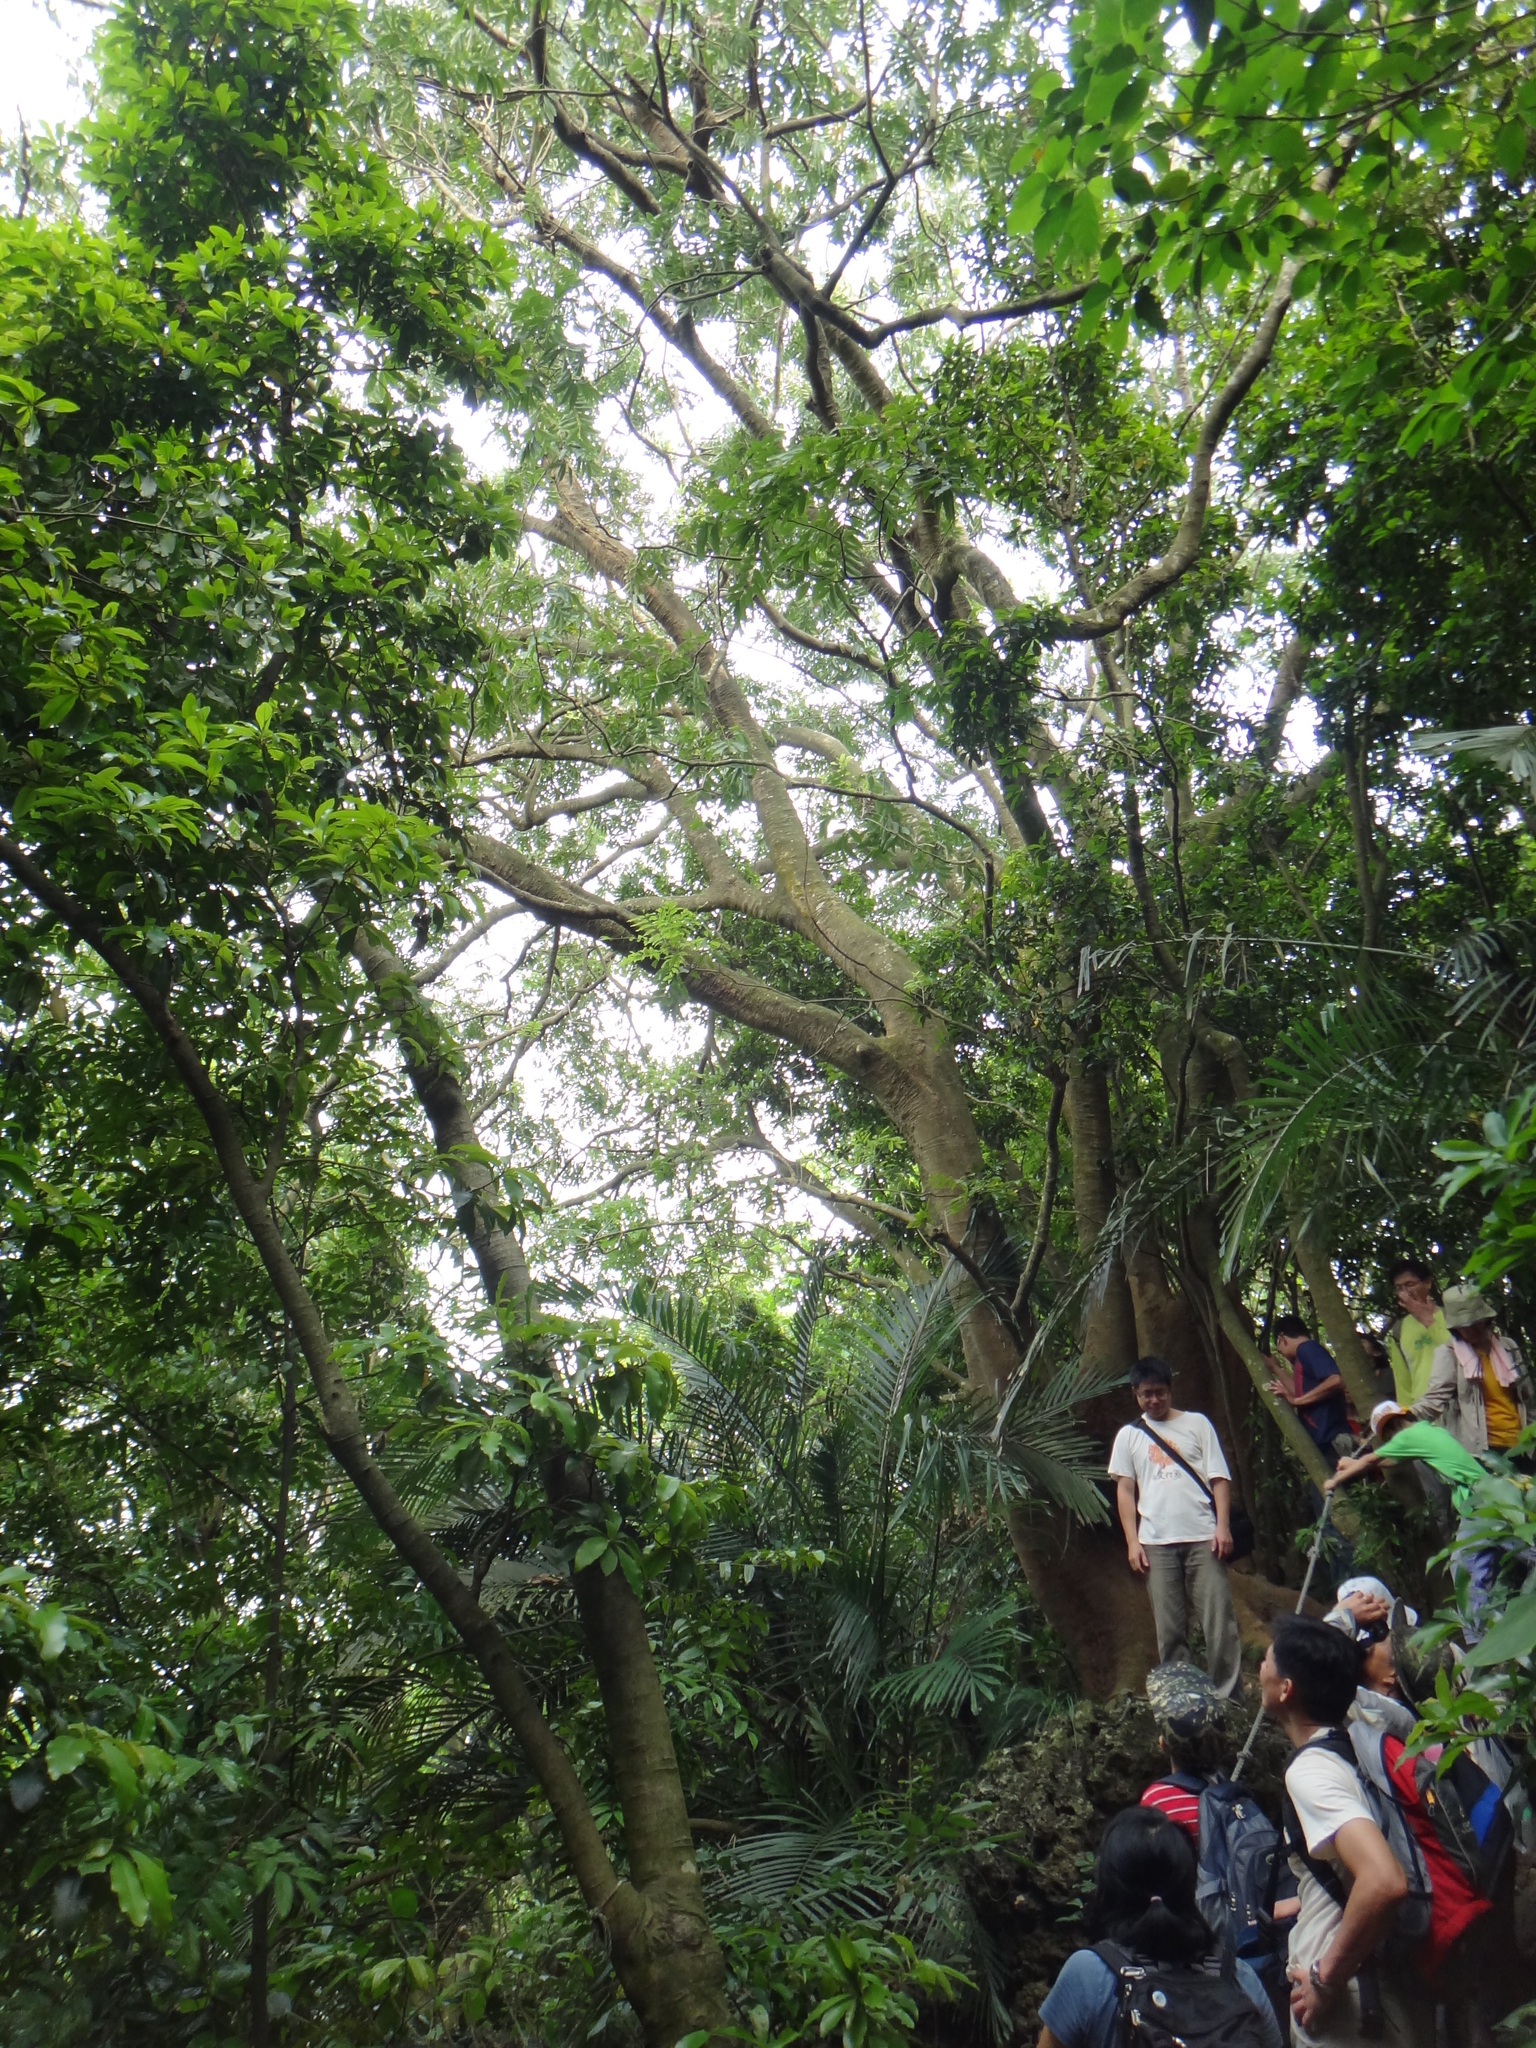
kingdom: Plantae
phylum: Tracheophyta
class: Magnoliopsida
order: Sapindales
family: Sapindaceae
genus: Sapindus
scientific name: Sapindus mukorossi
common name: Chinese soapberry
